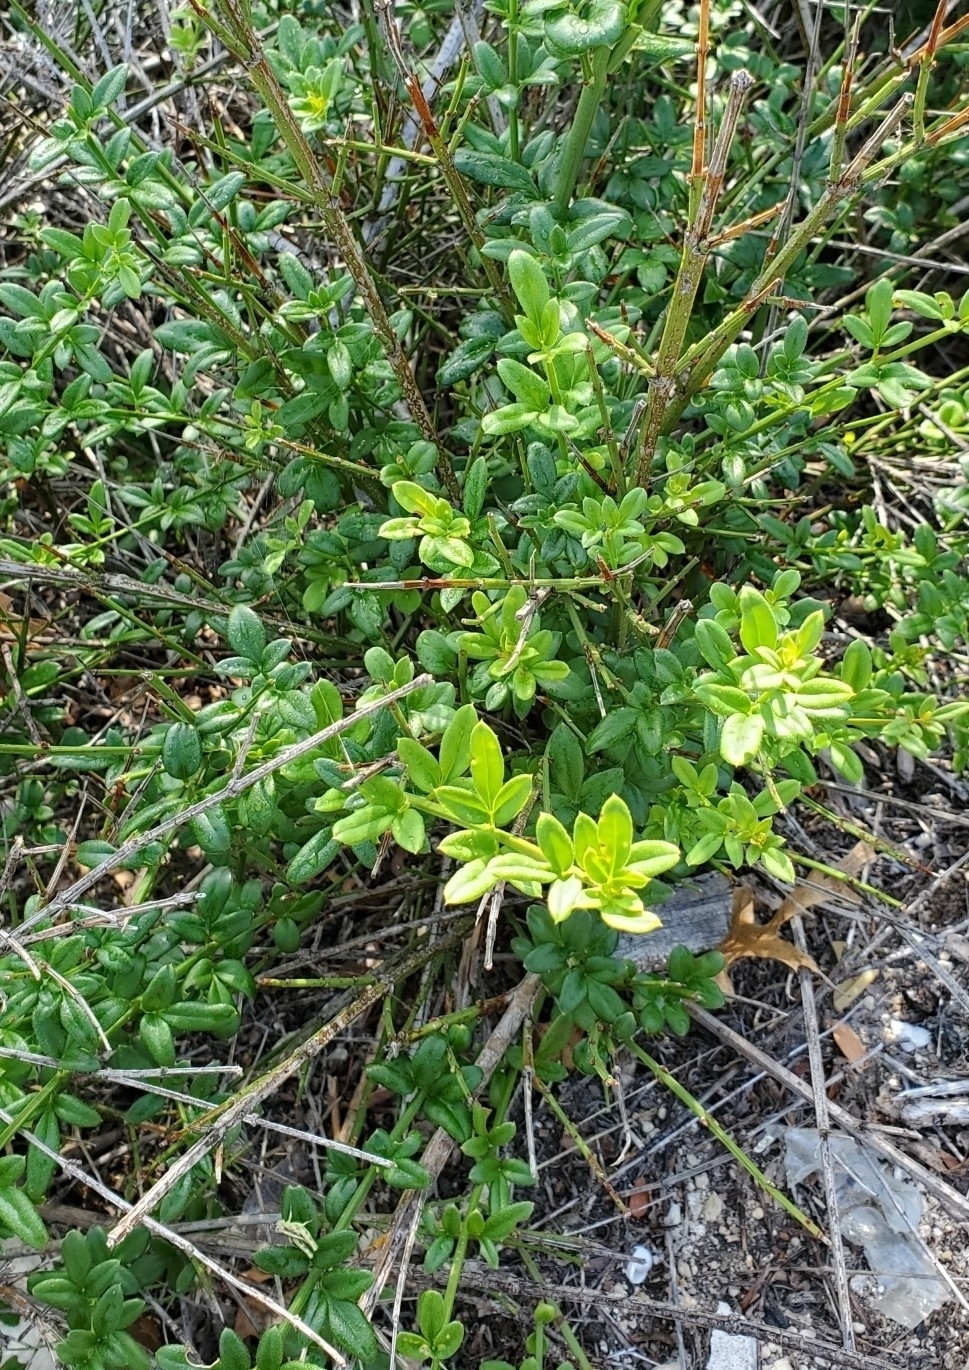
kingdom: Plantae
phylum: Tracheophyta
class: Magnoliopsida
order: Lamiales
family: Oleaceae
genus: Jasminum
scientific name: Jasminum mesnyi
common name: Japanese jasmine
